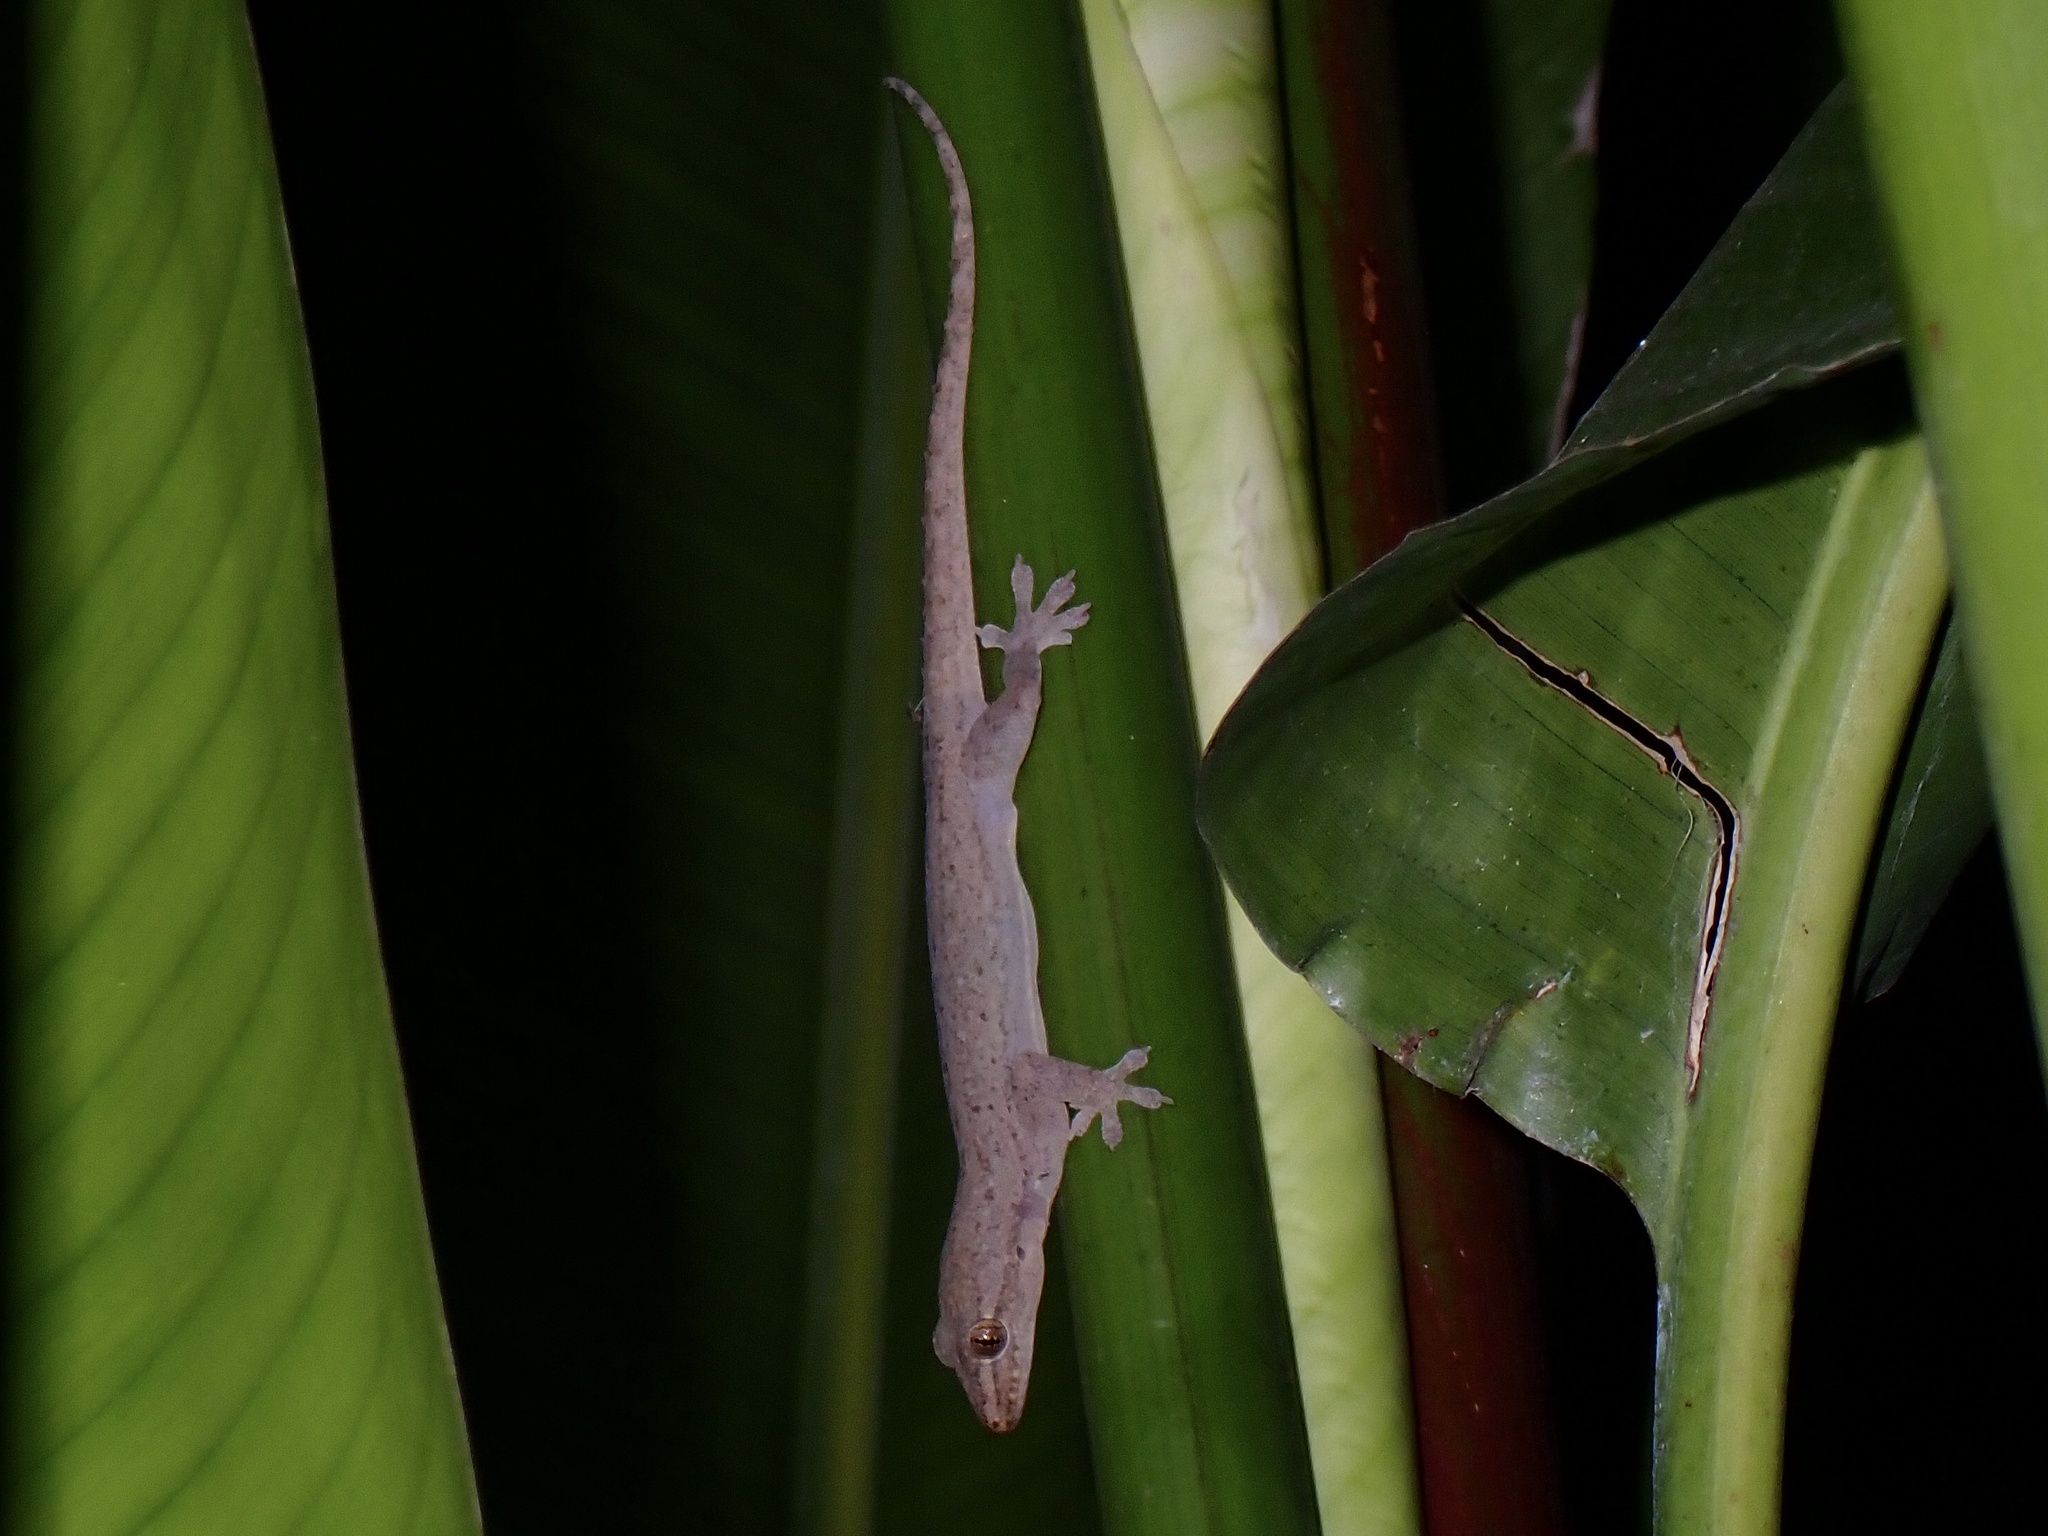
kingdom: Animalia
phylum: Chordata
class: Squamata
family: Gekkonidae
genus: Hemidactylus
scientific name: Hemidactylus frenatus
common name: Common house gecko
